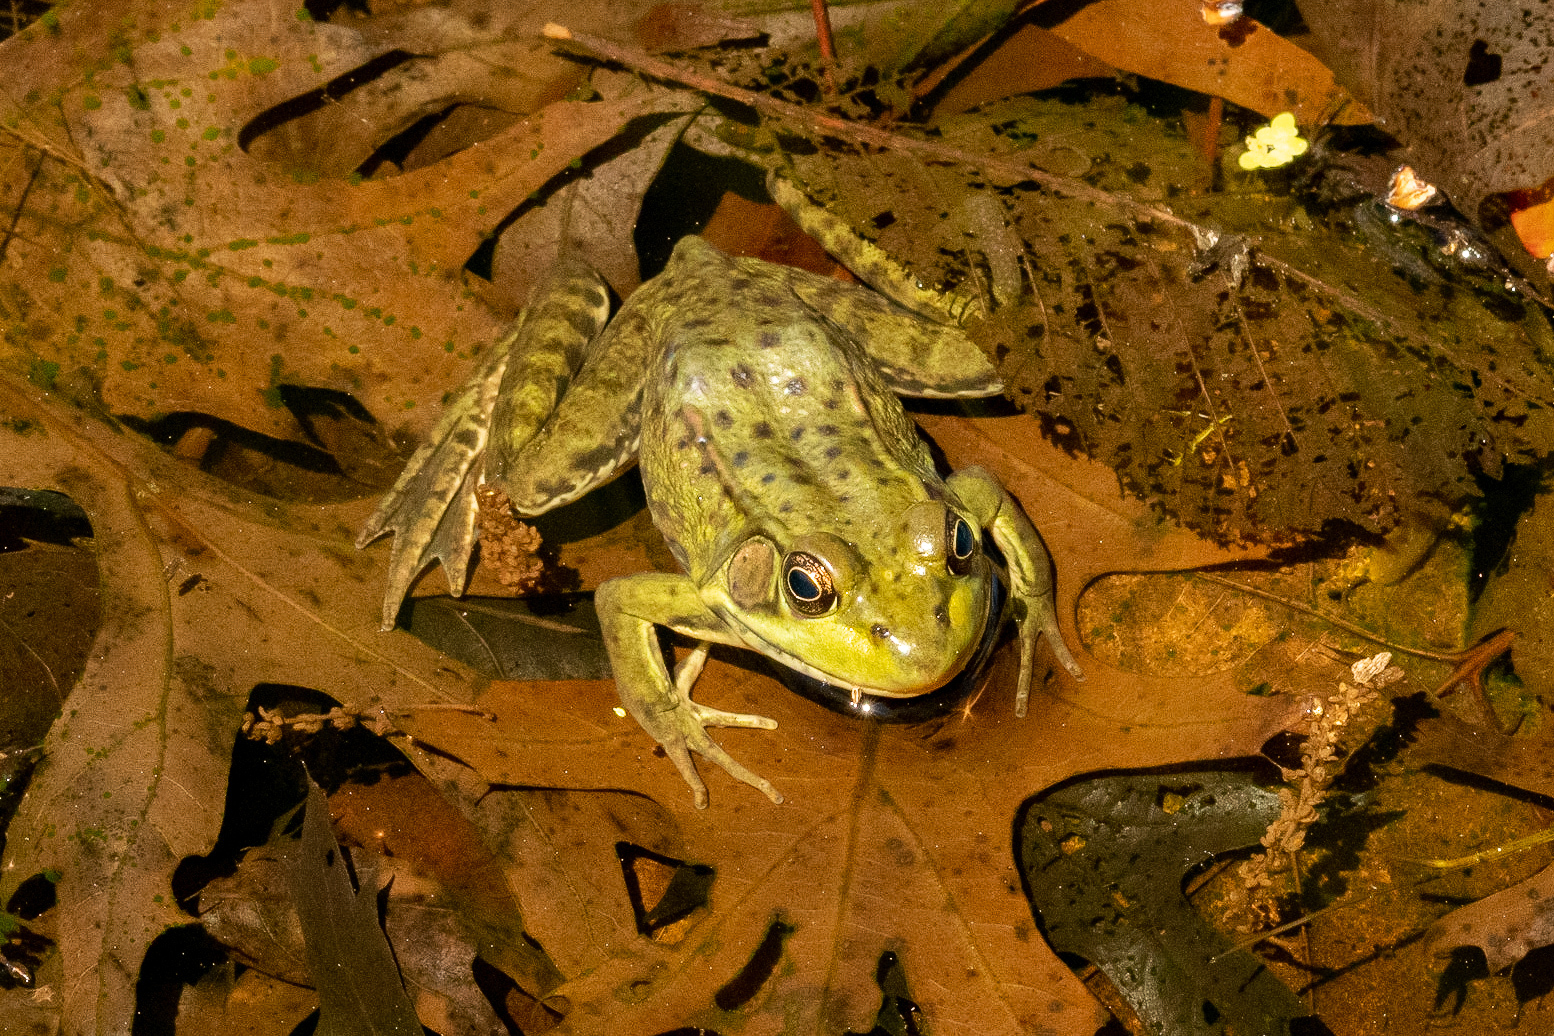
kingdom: Animalia
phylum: Chordata
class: Amphibia
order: Anura
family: Ranidae
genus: Lithobates
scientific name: Lithobates clamitans
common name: Green frog
